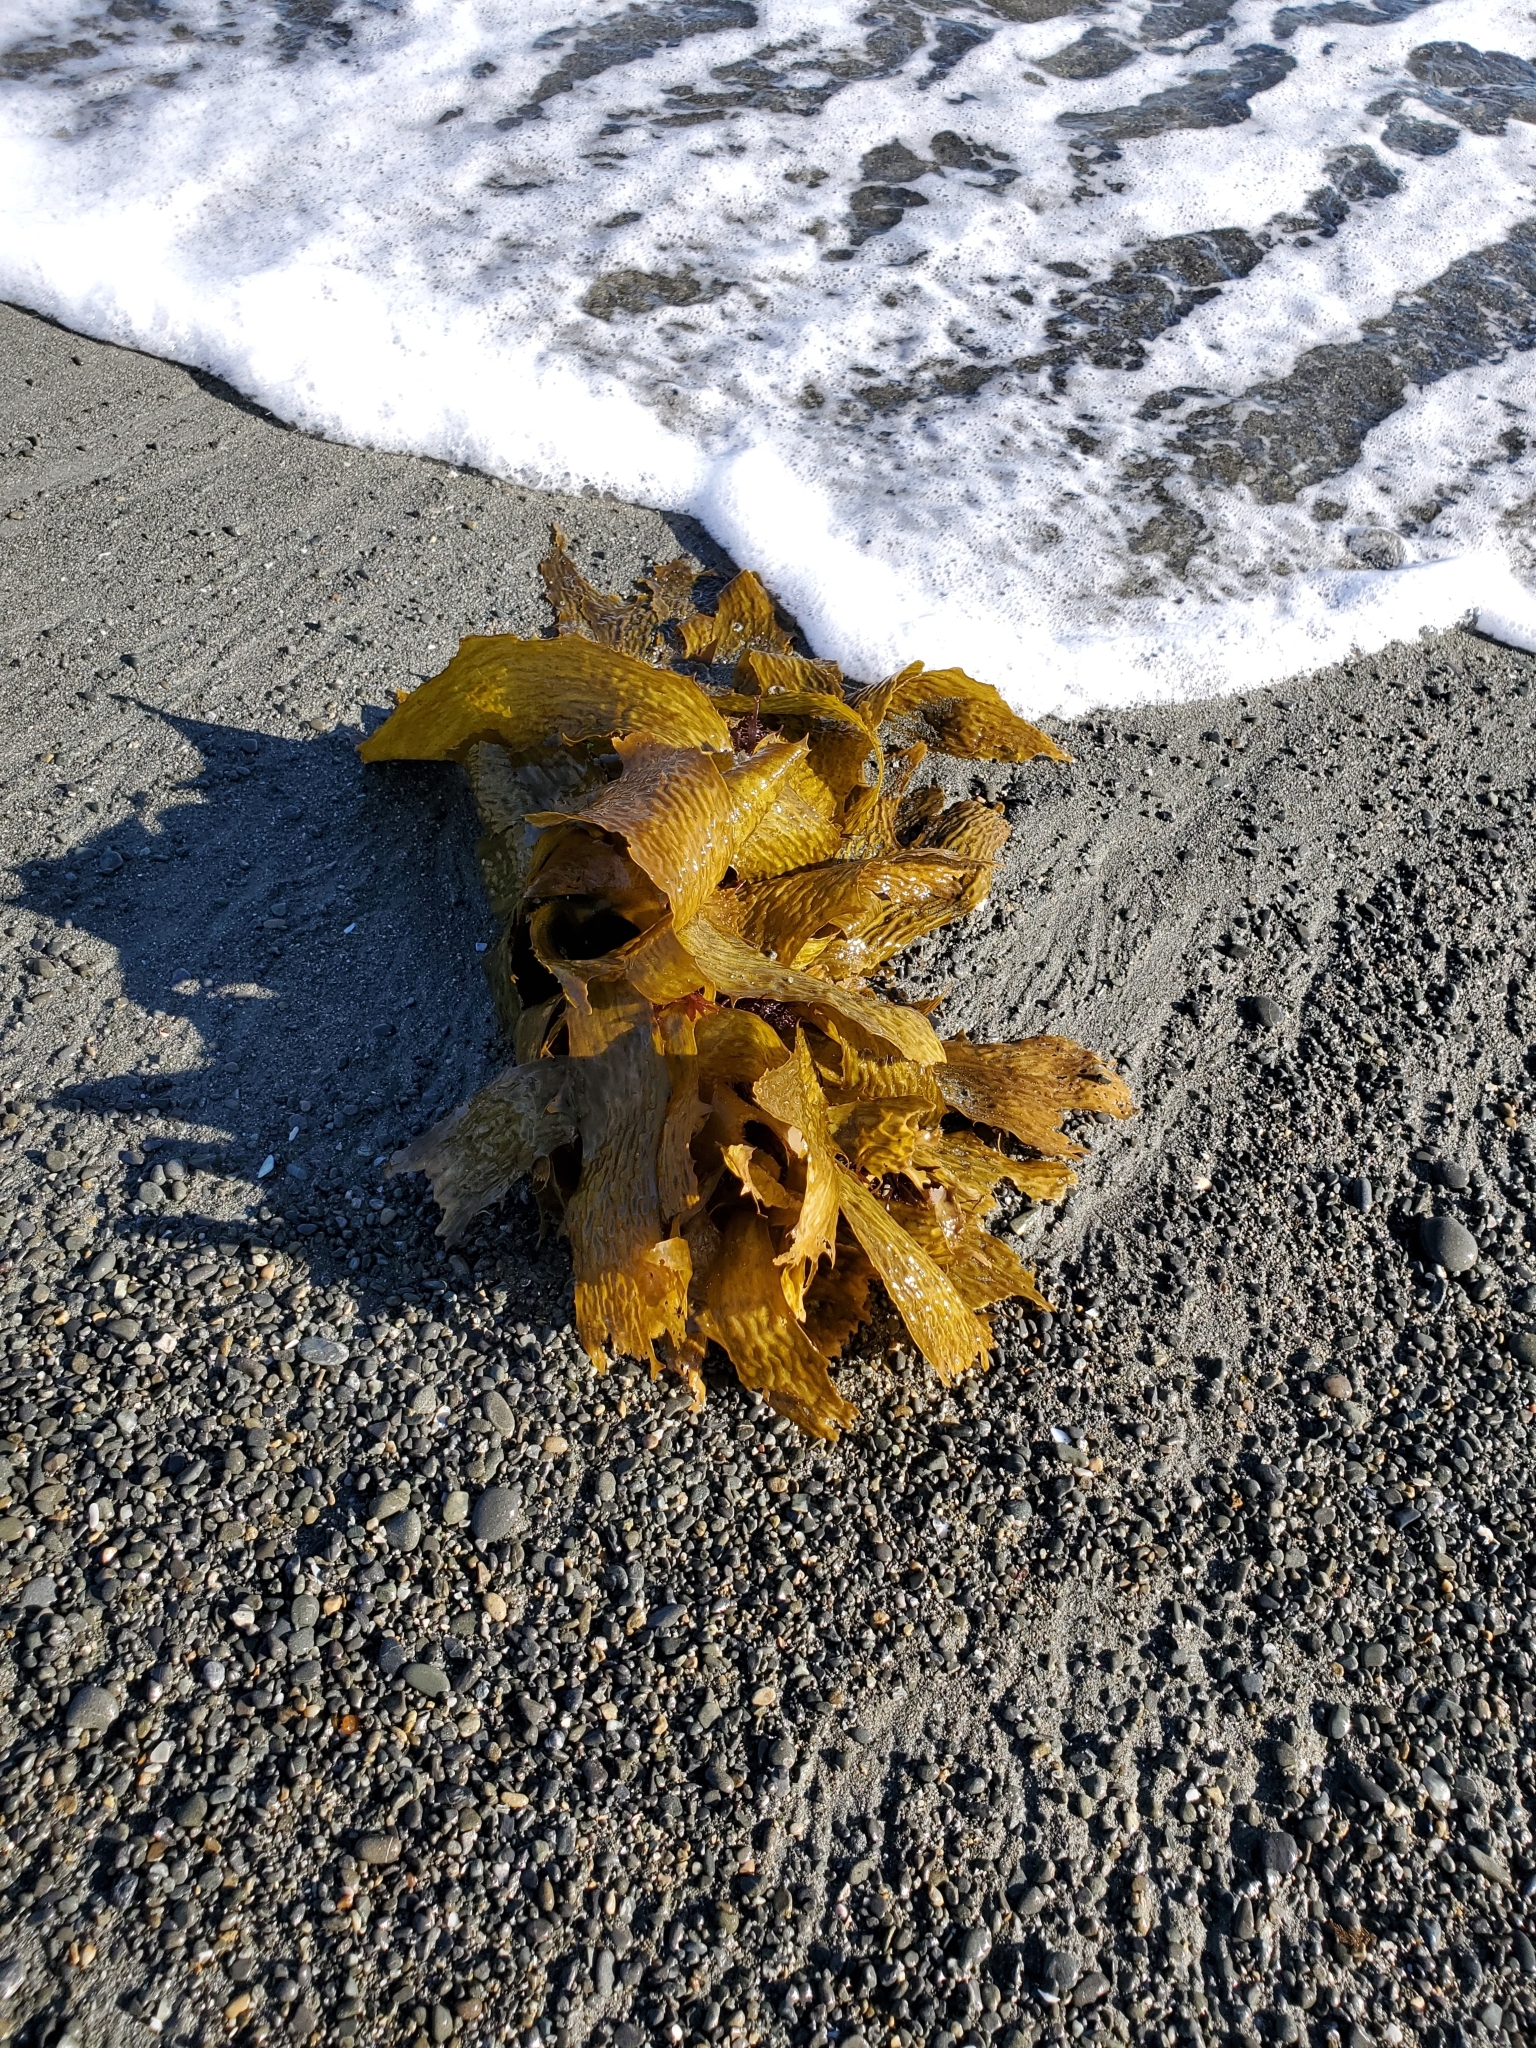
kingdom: Chromista
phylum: Ochrophyta
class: Phaeophyceae
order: Laminariales
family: Lessoniaceae
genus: Ecklonia
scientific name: Ecklonia radiata
